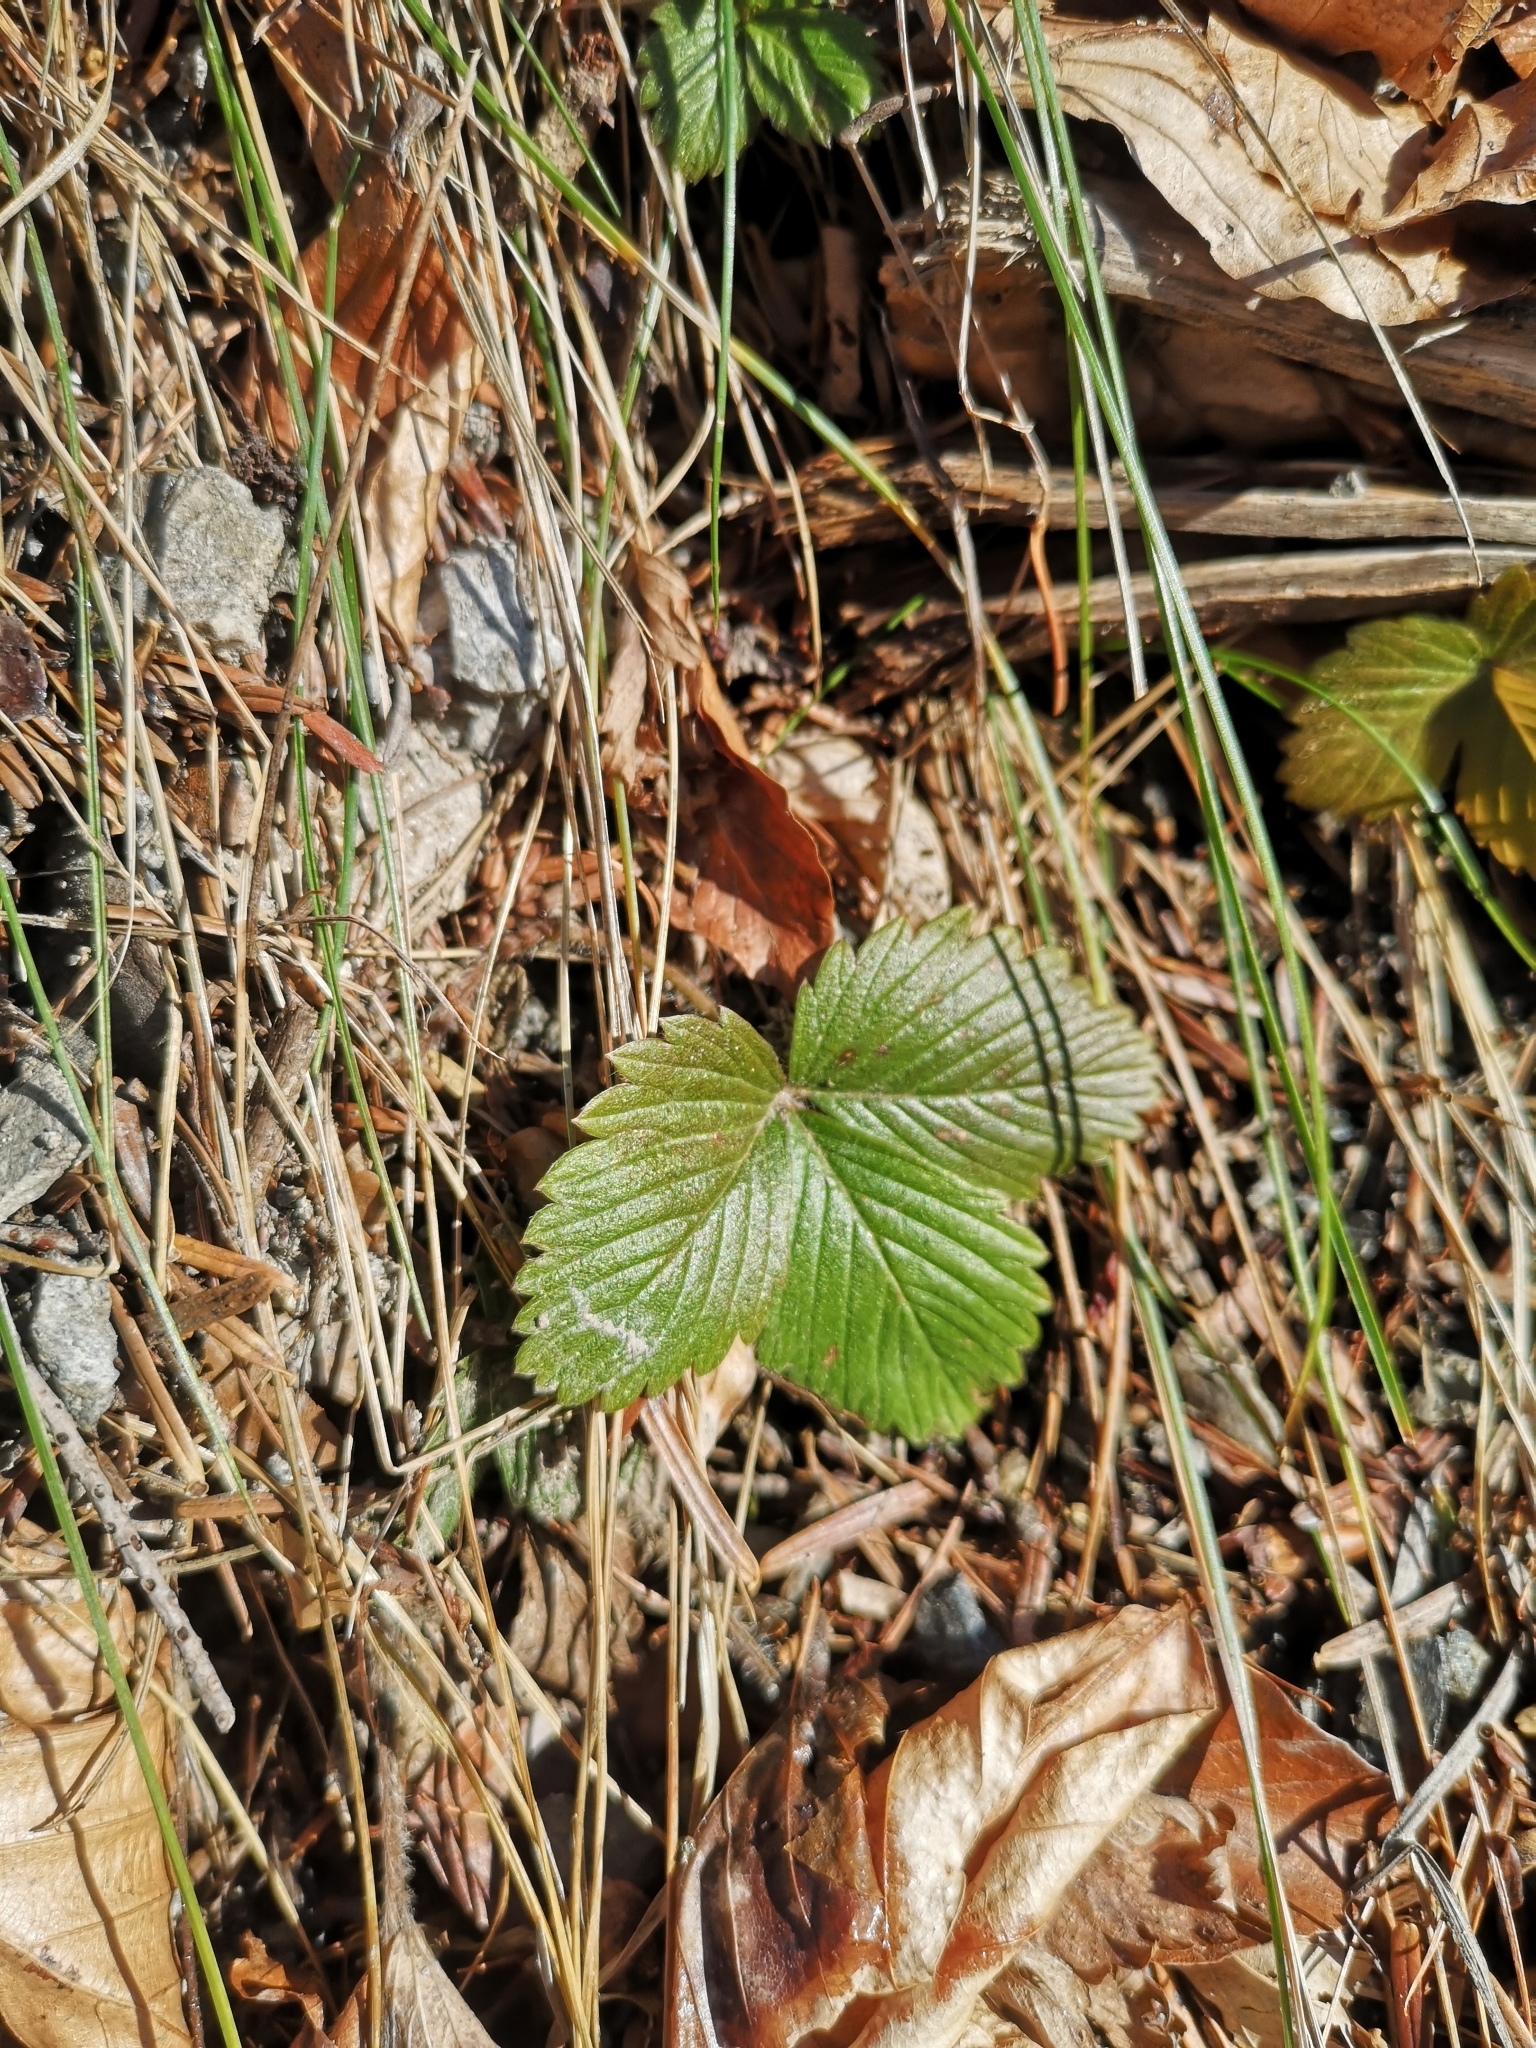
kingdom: Plantae
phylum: Tracheophyta
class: Magnoliopsida
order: Rosales
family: Rosaceae
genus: Fragaria
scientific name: Fragaria vesca
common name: Wild strawberry
